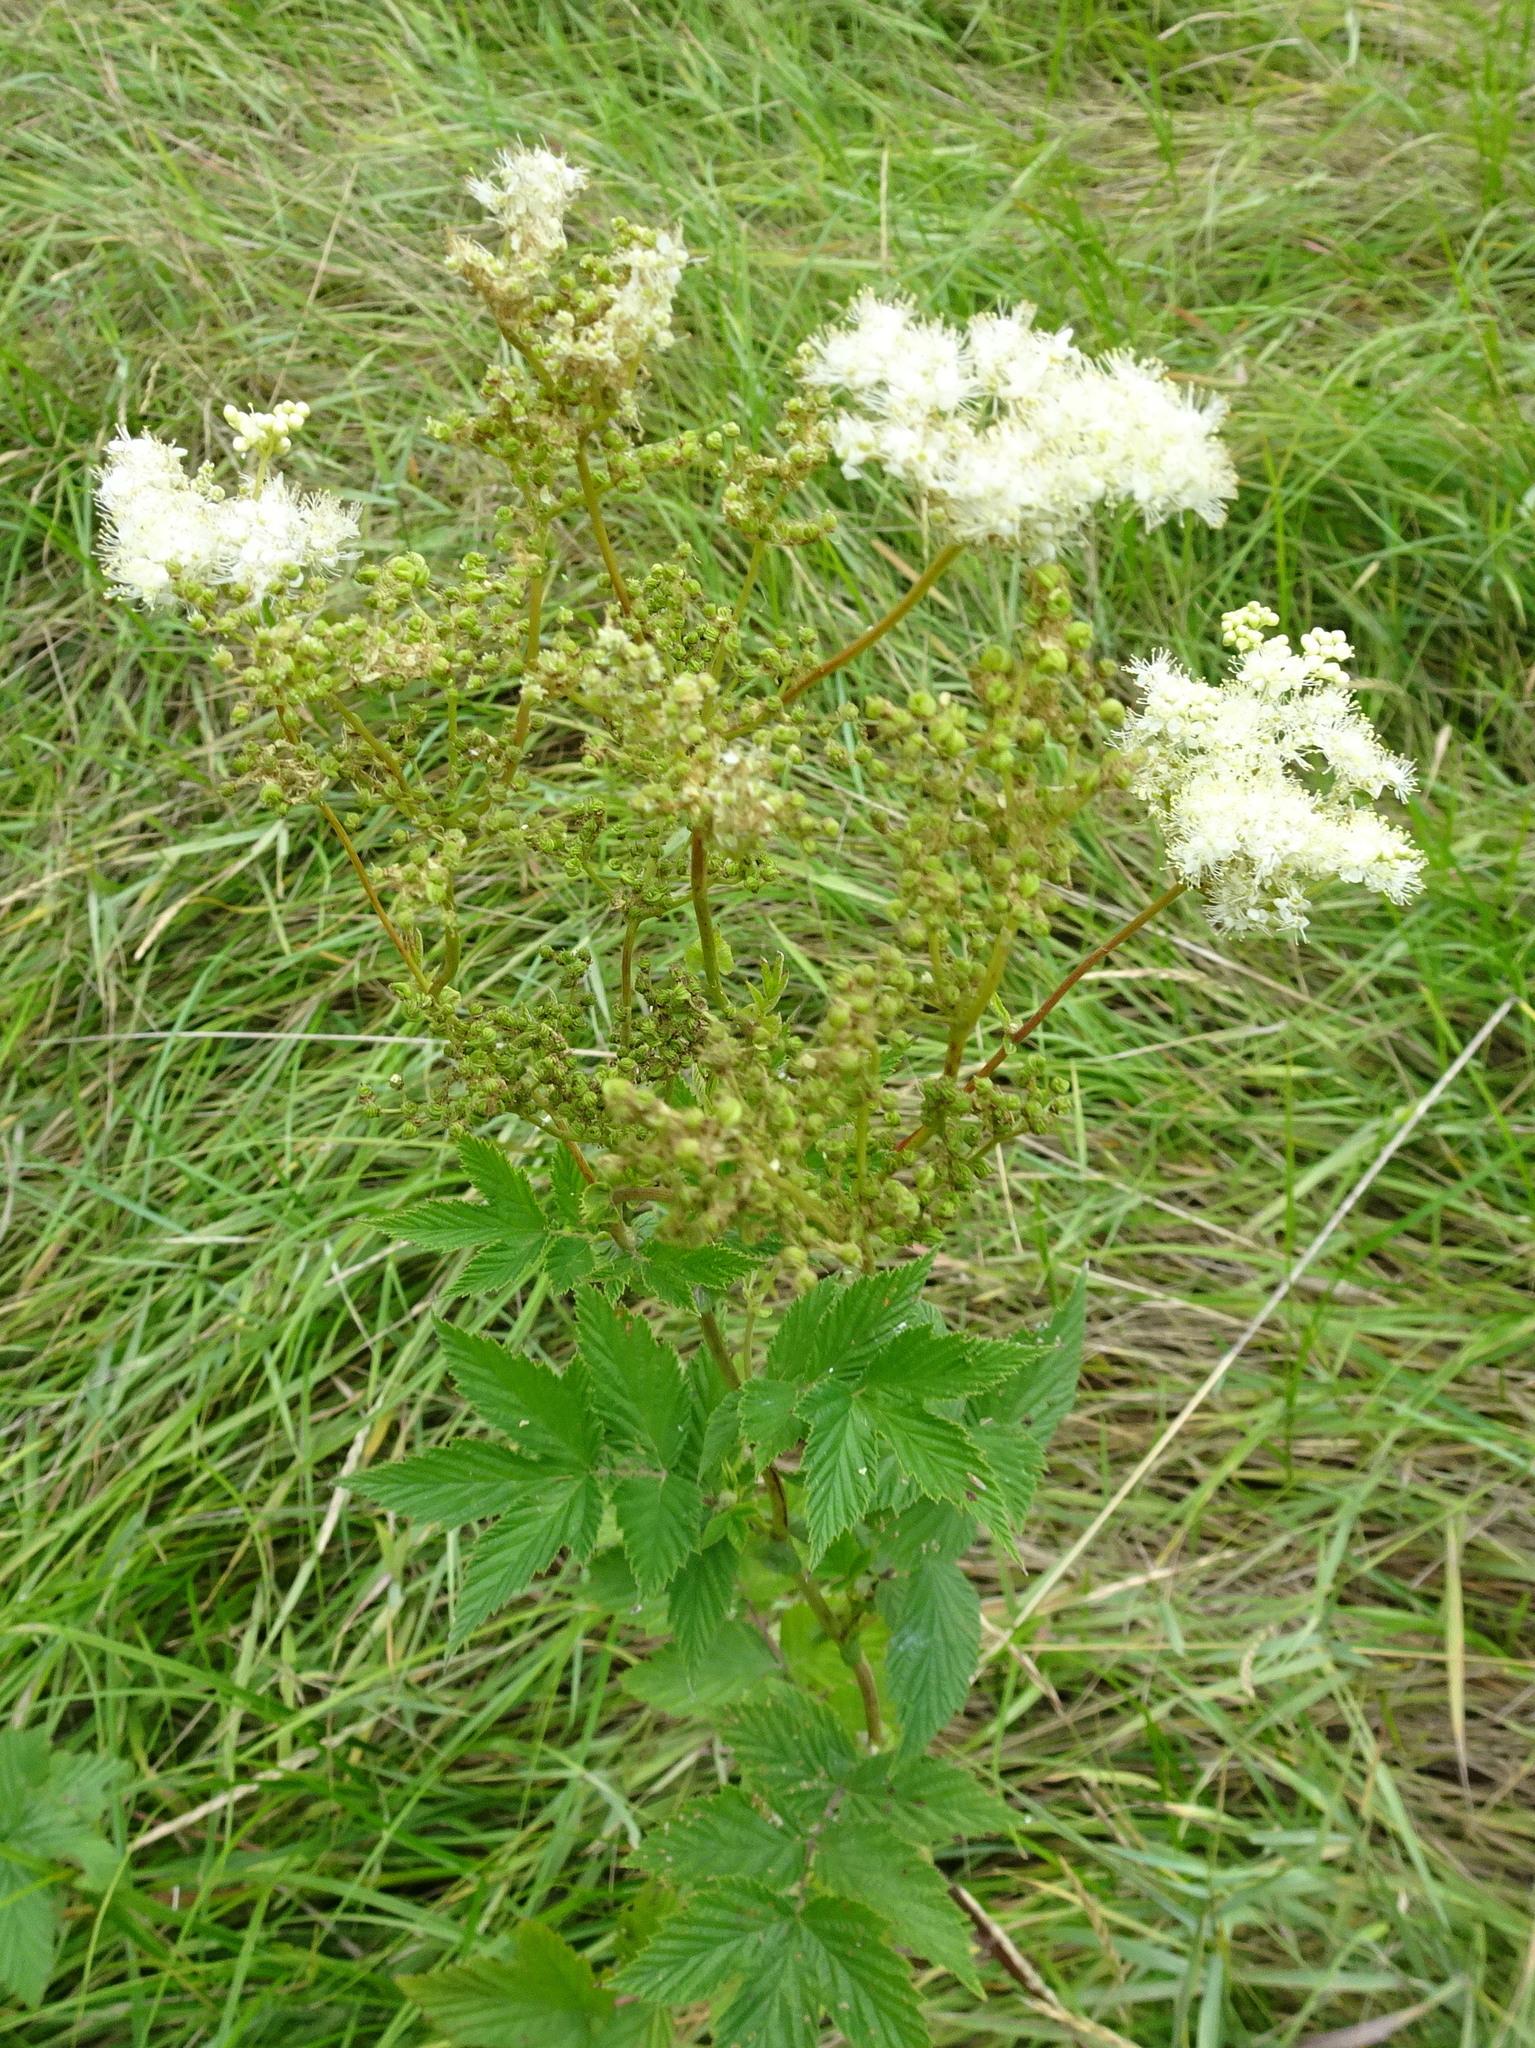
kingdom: Plantae
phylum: Tracheophyta
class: Magnoliopsida
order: Rosales
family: Rosaceae
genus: Filipendula
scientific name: Filipendula ulmaria
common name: Meadowsweet
